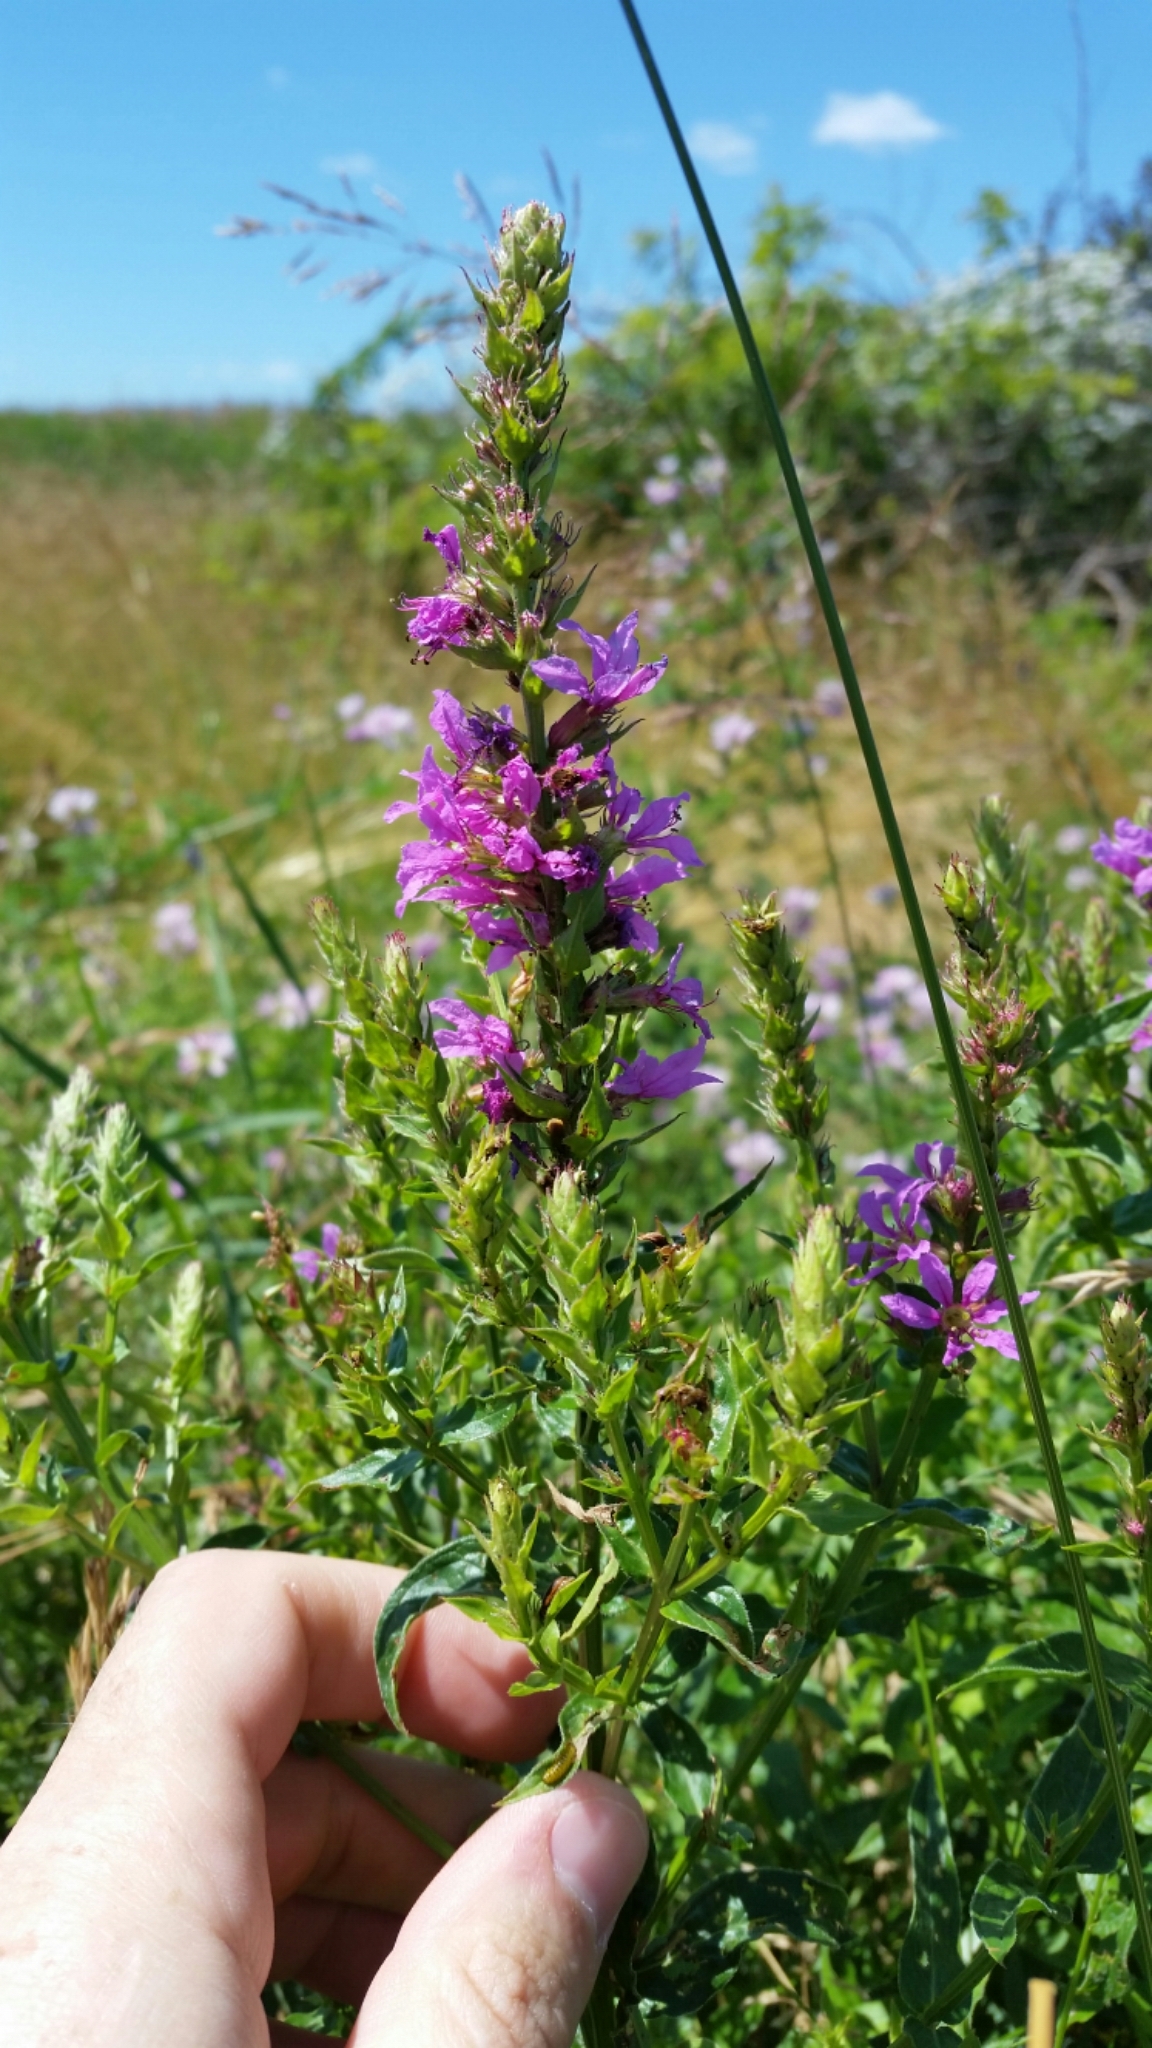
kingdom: Plantae
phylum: Tracheophyta
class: Magnoliopsida
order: Myrtales
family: Lythraceae
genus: Lythrum
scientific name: Lythrum salicaria
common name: Purple loosestrife
